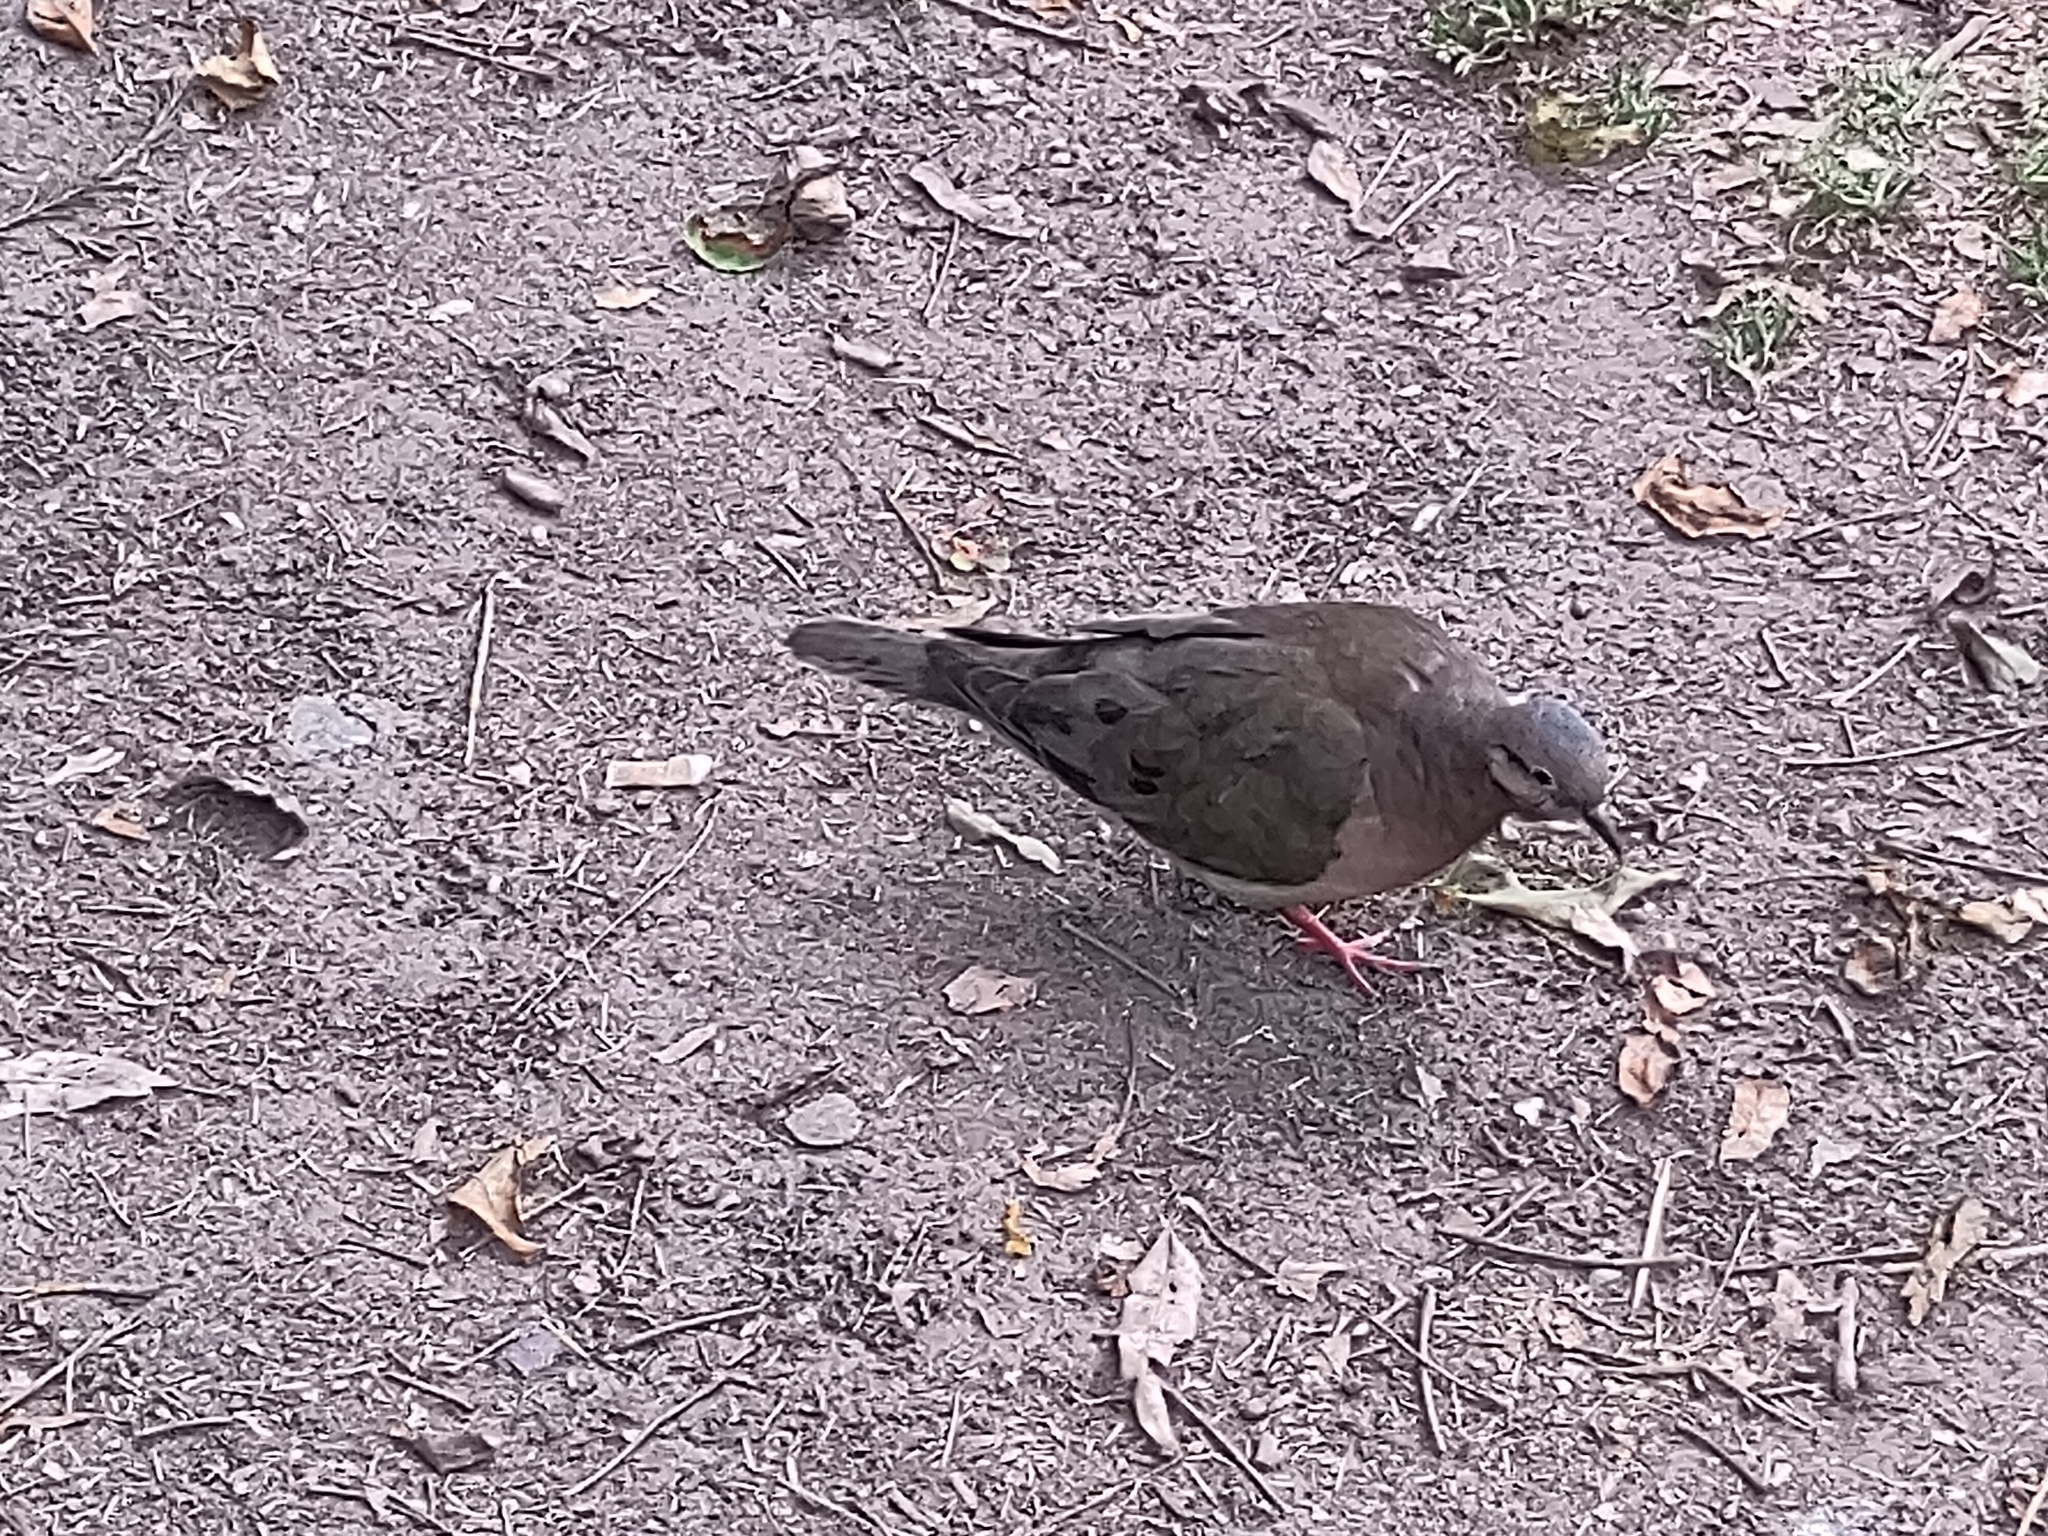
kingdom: Animalia
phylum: Chordata
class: Aves
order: Columbiformes
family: Columbidae
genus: Zenaida
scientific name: Zenaida auriculata
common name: Eared dove
